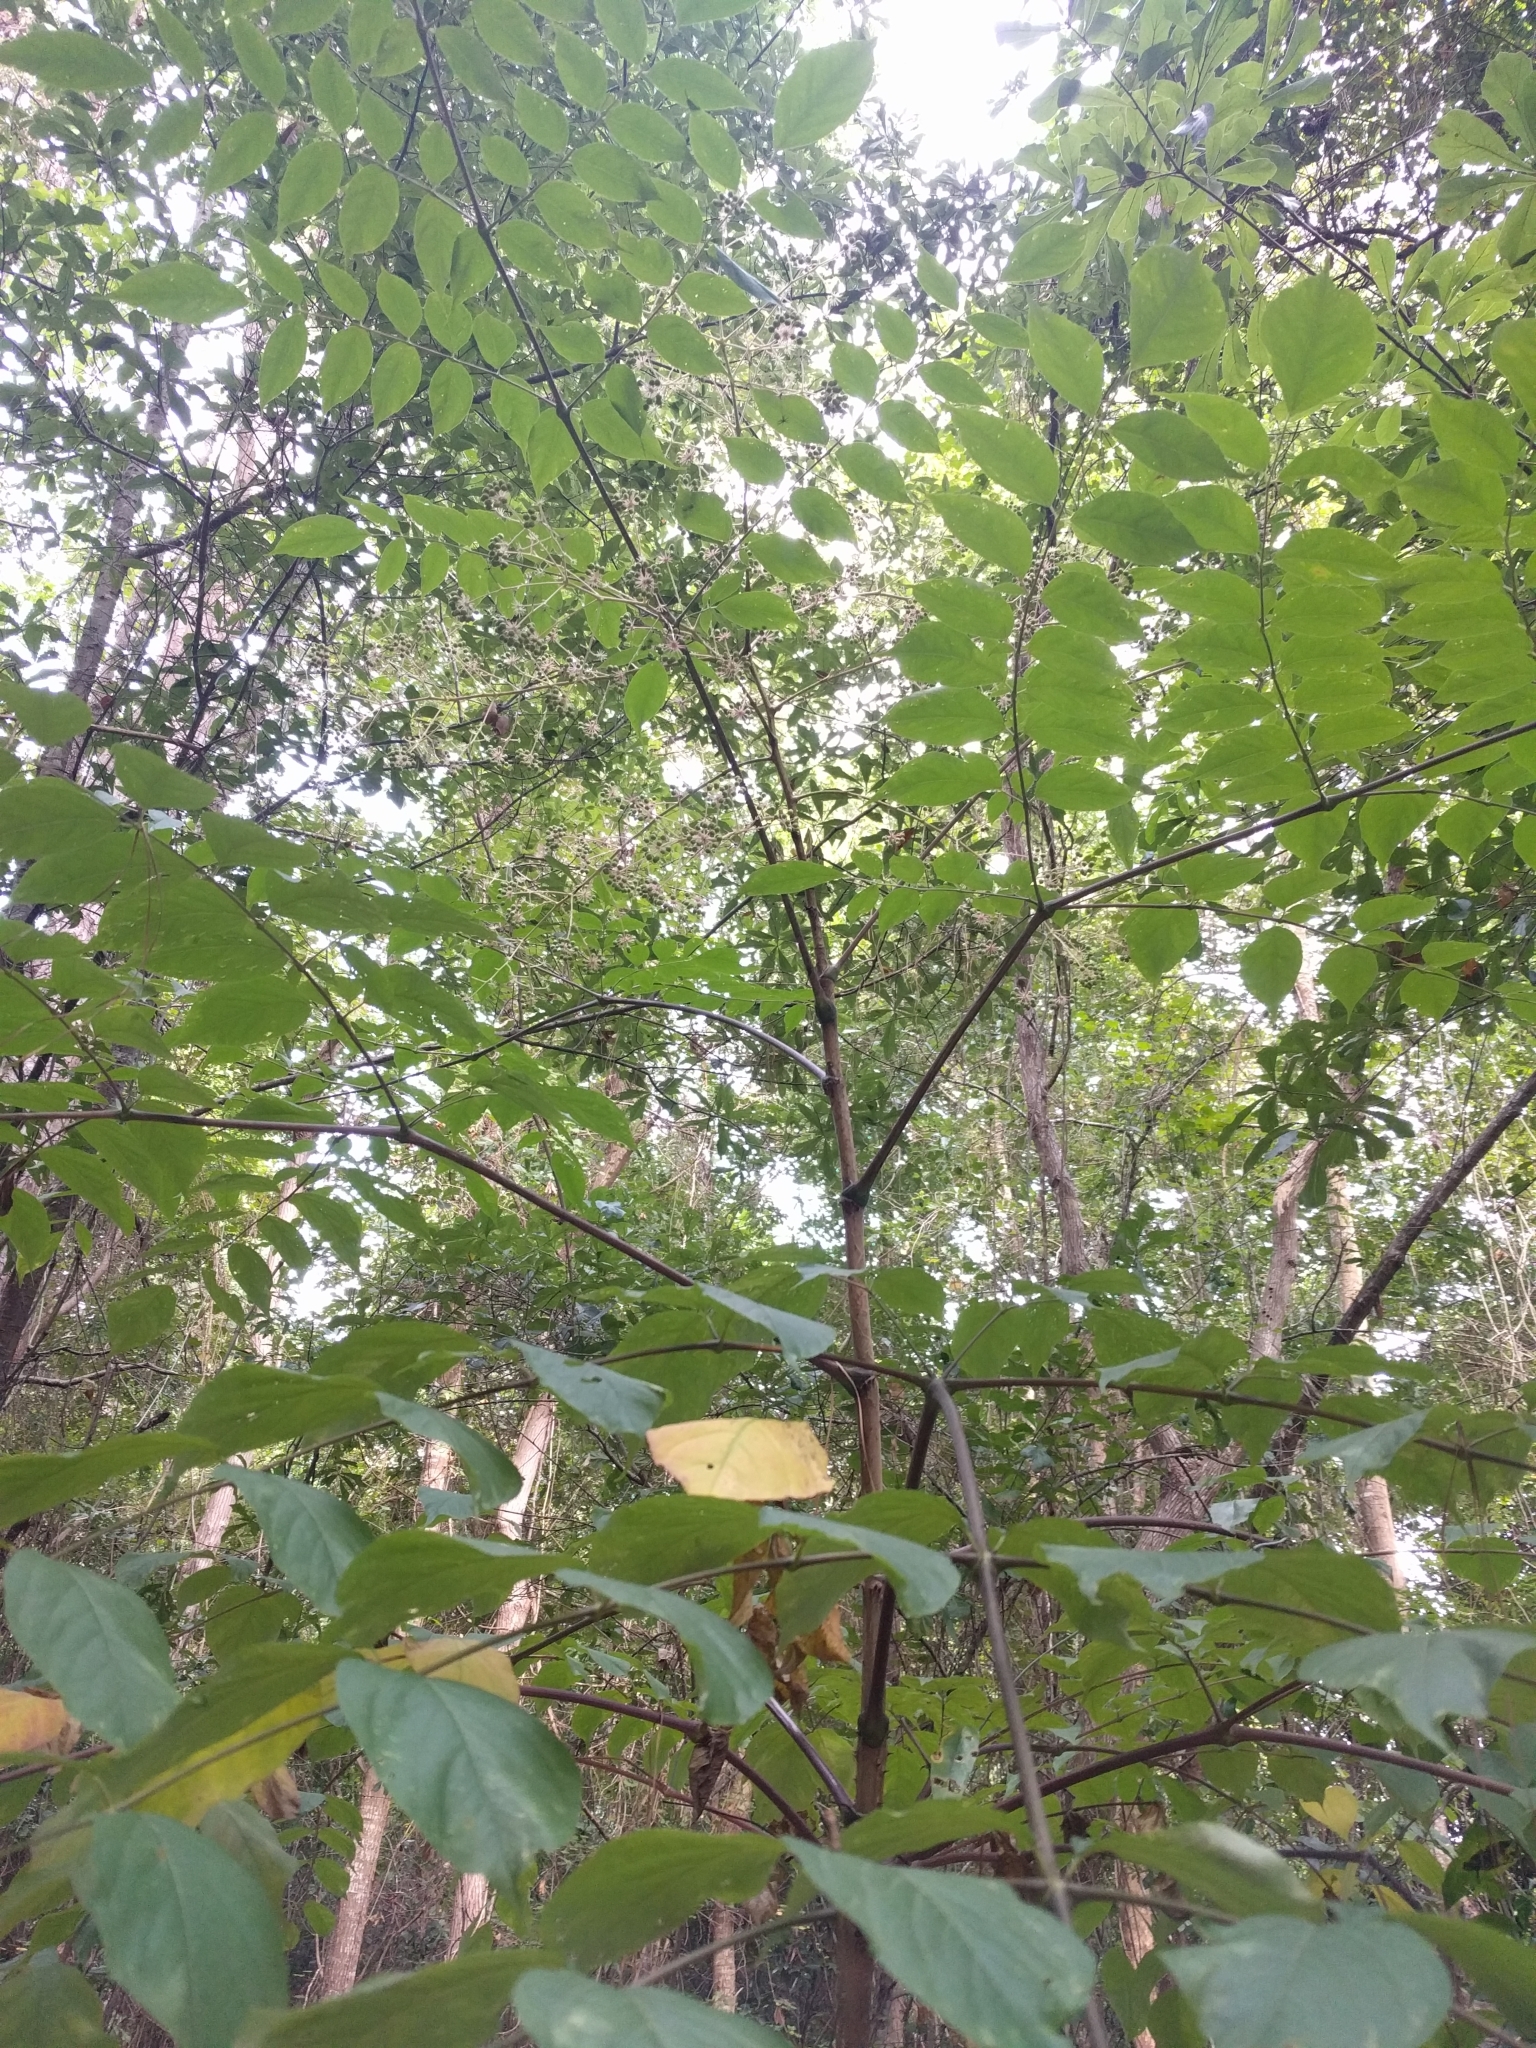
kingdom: Plantae
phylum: Tracheophyta
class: Magnoliopsida
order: Apiales
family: Araliaceae
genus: Aralia
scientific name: Aralia spinosa
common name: Hercules'-club
